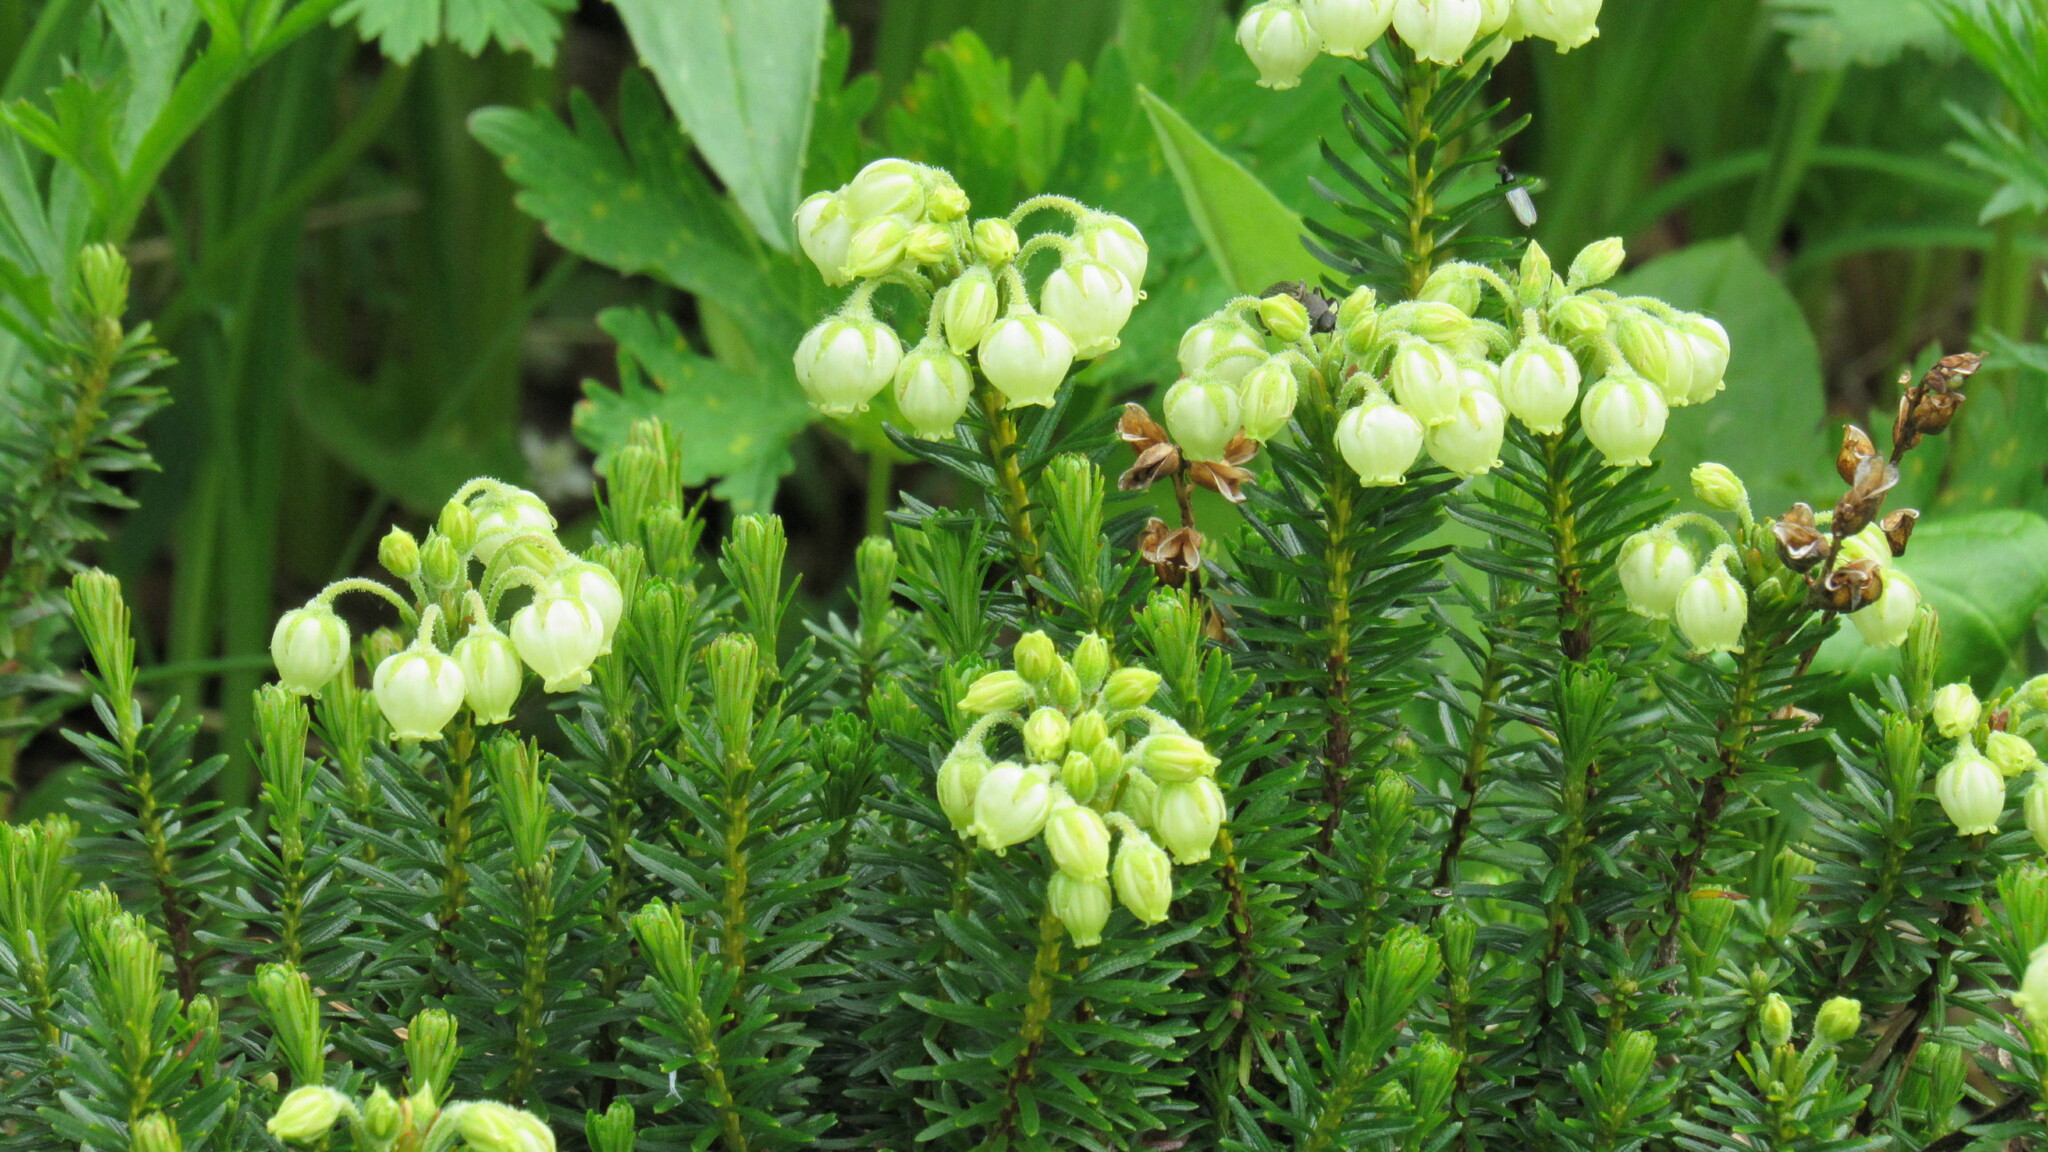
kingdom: Plantae
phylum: Tracheophyta
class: Magnoliopsida
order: Ericales
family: Ericaceae
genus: Phyllodoce
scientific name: Phyllodoce aleutica
